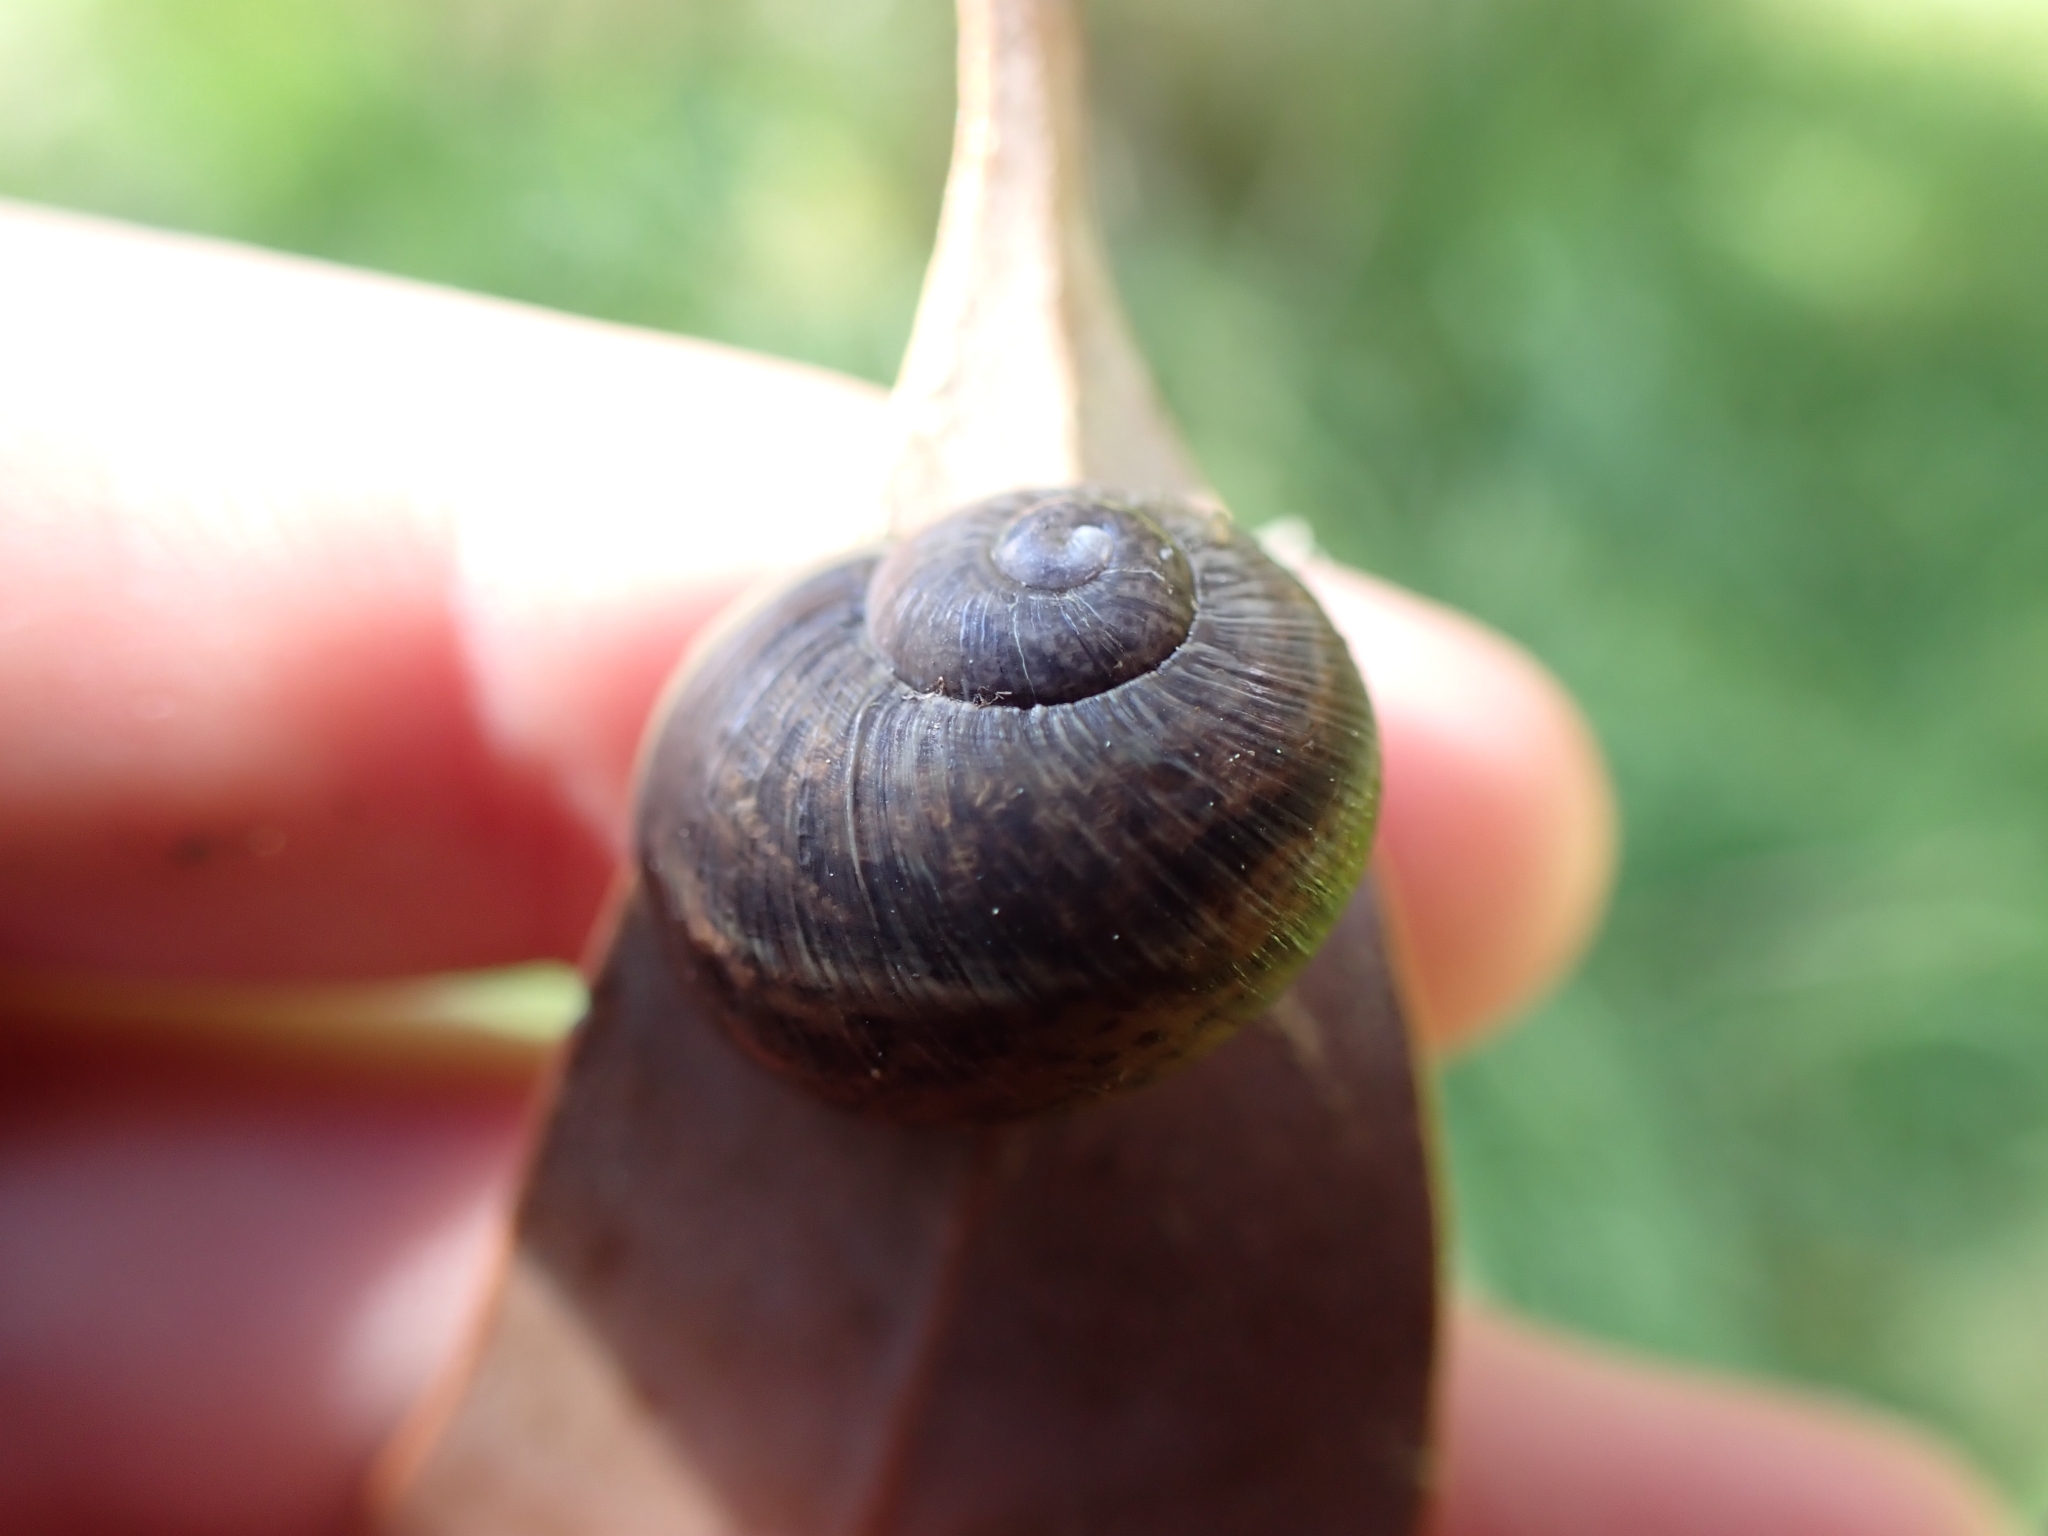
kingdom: Animalia
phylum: Mollusca
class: Gastropoda
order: Stylommatophora
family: Helicidae
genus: Cornu
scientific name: Cornu aspersum
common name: Brown garden snail
